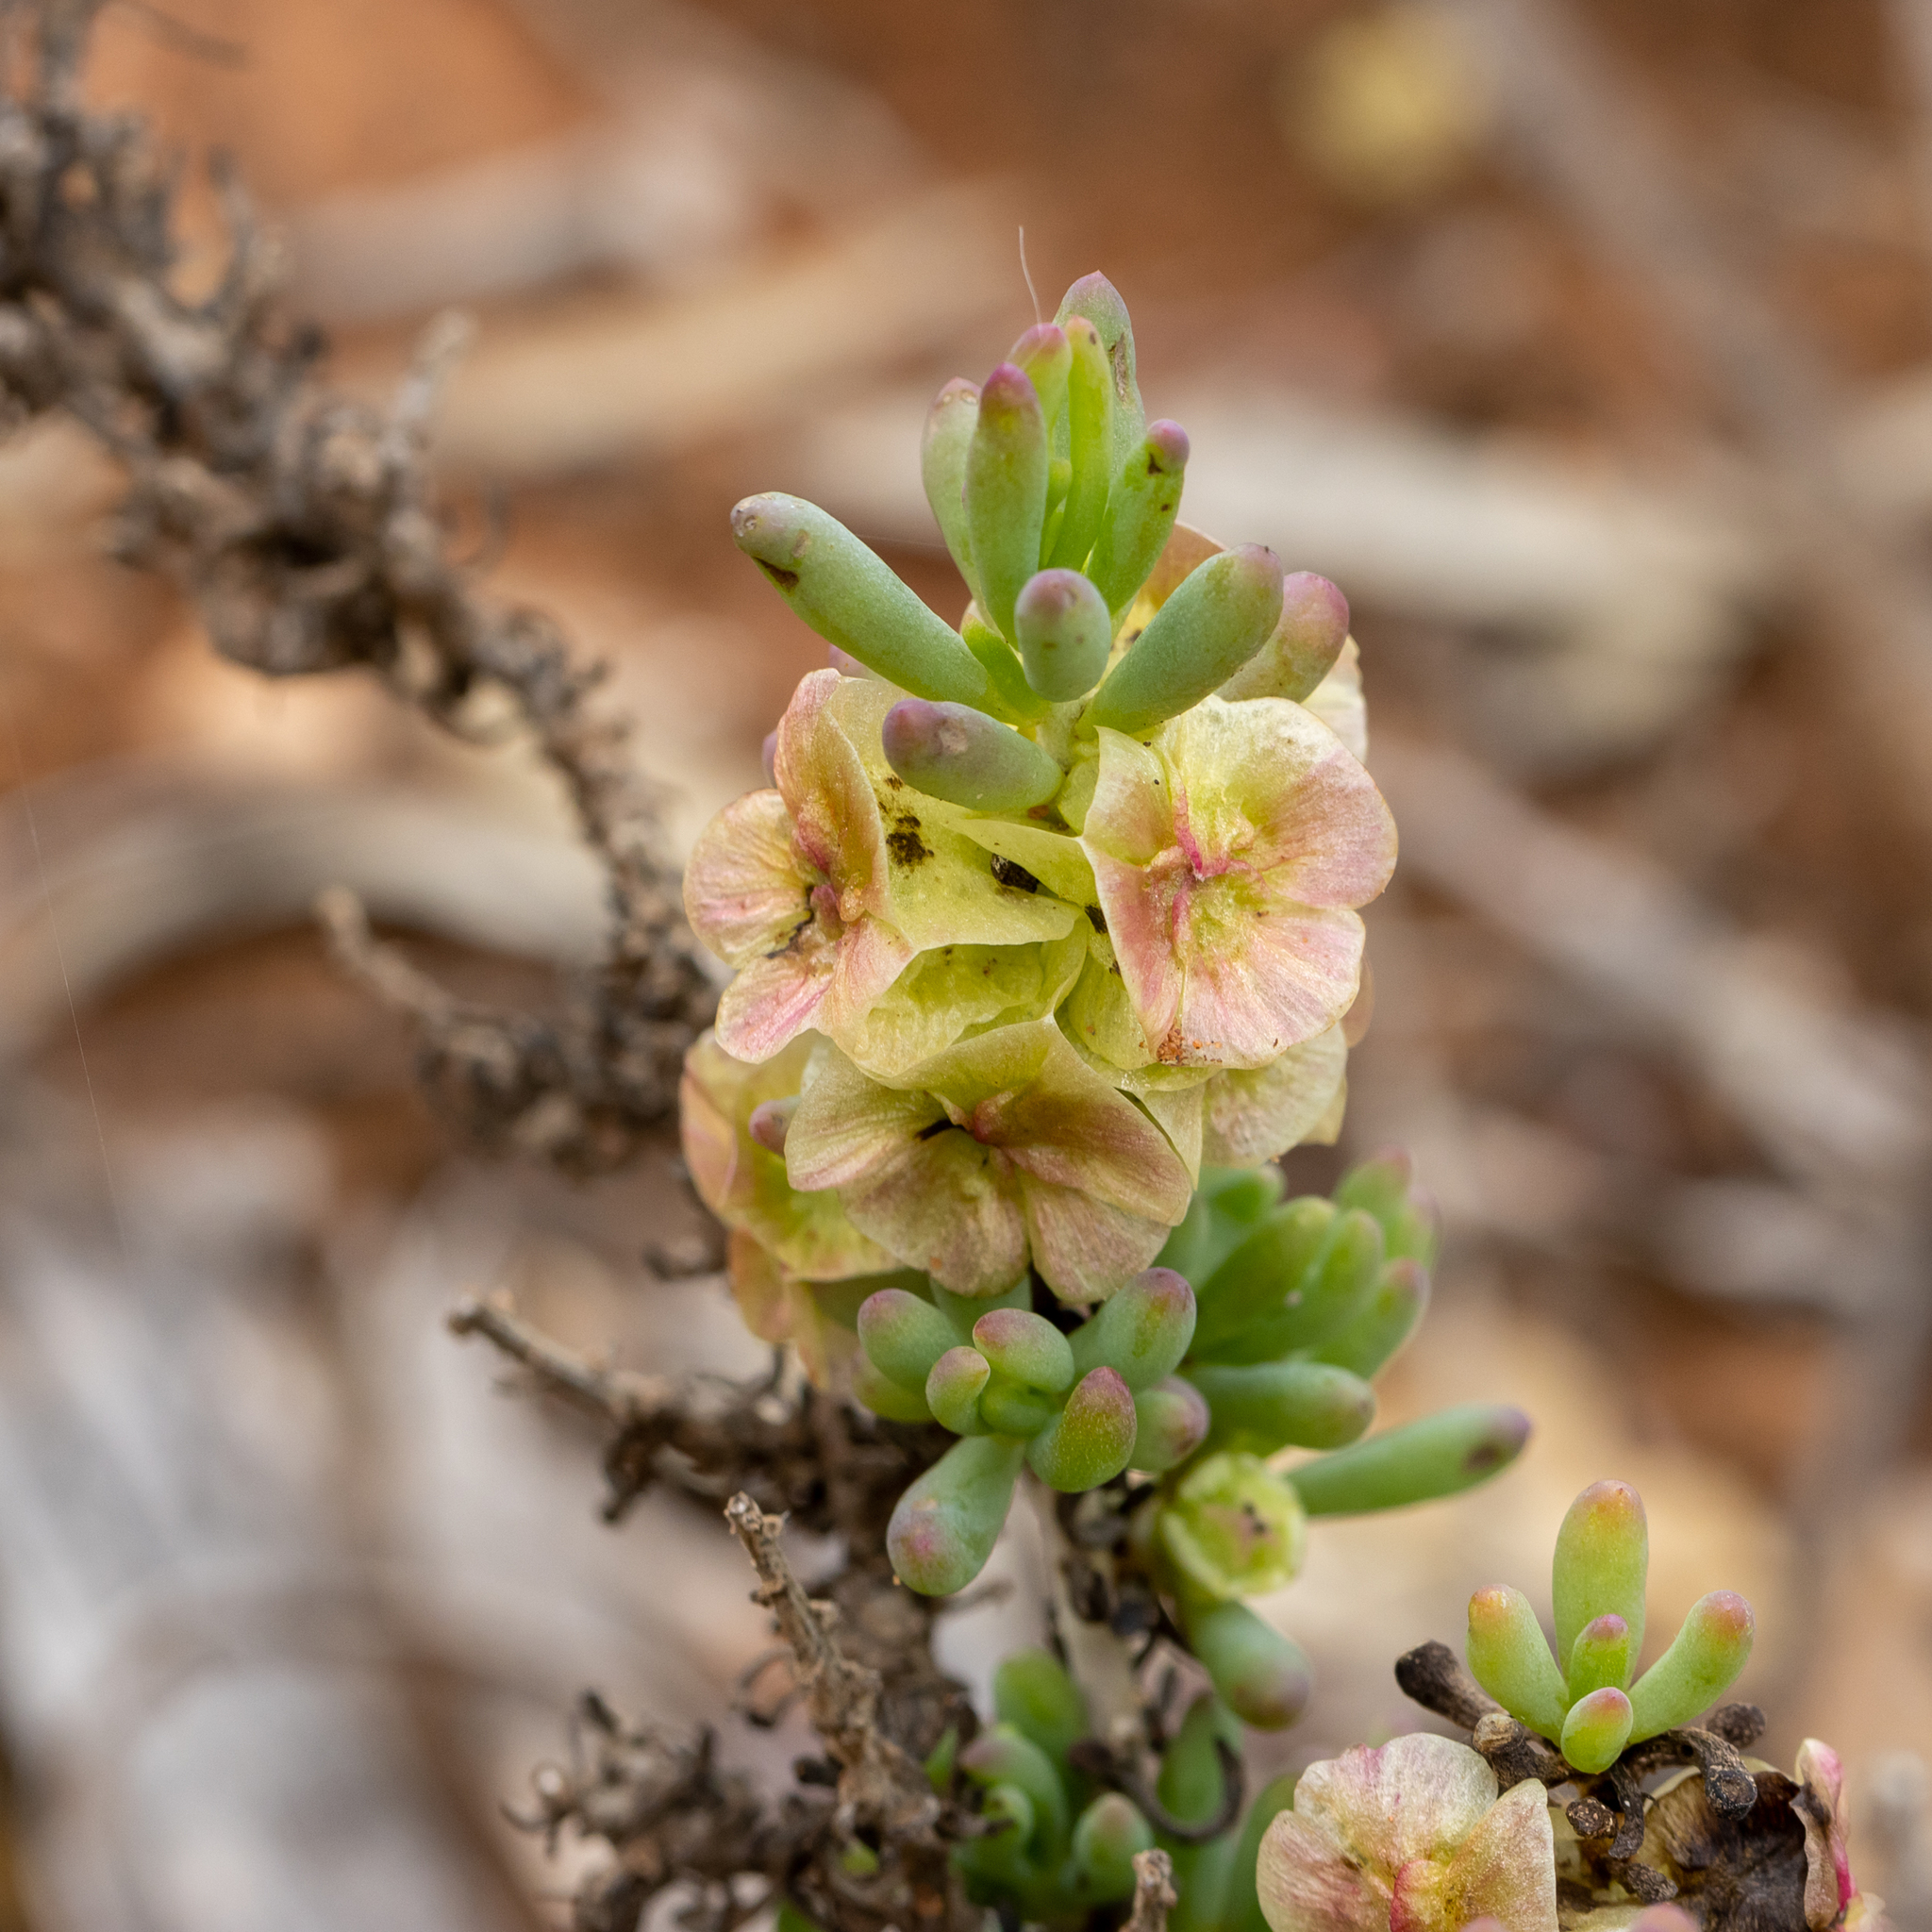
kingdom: Plantae
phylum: Tracheophyta
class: Magnoliopsida
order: Caryophyllales
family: Amaranthaceae
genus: Maireana
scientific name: Maireana erioclada
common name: Rosy bluebush
